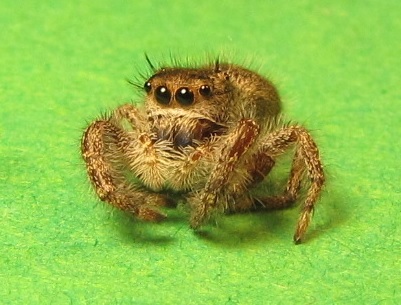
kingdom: Animalia
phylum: Arthropoda
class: Arachnida
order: Araneae
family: Salticidae
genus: Phidippus
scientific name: Phidippus princeps
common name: Grayish jumping spider
